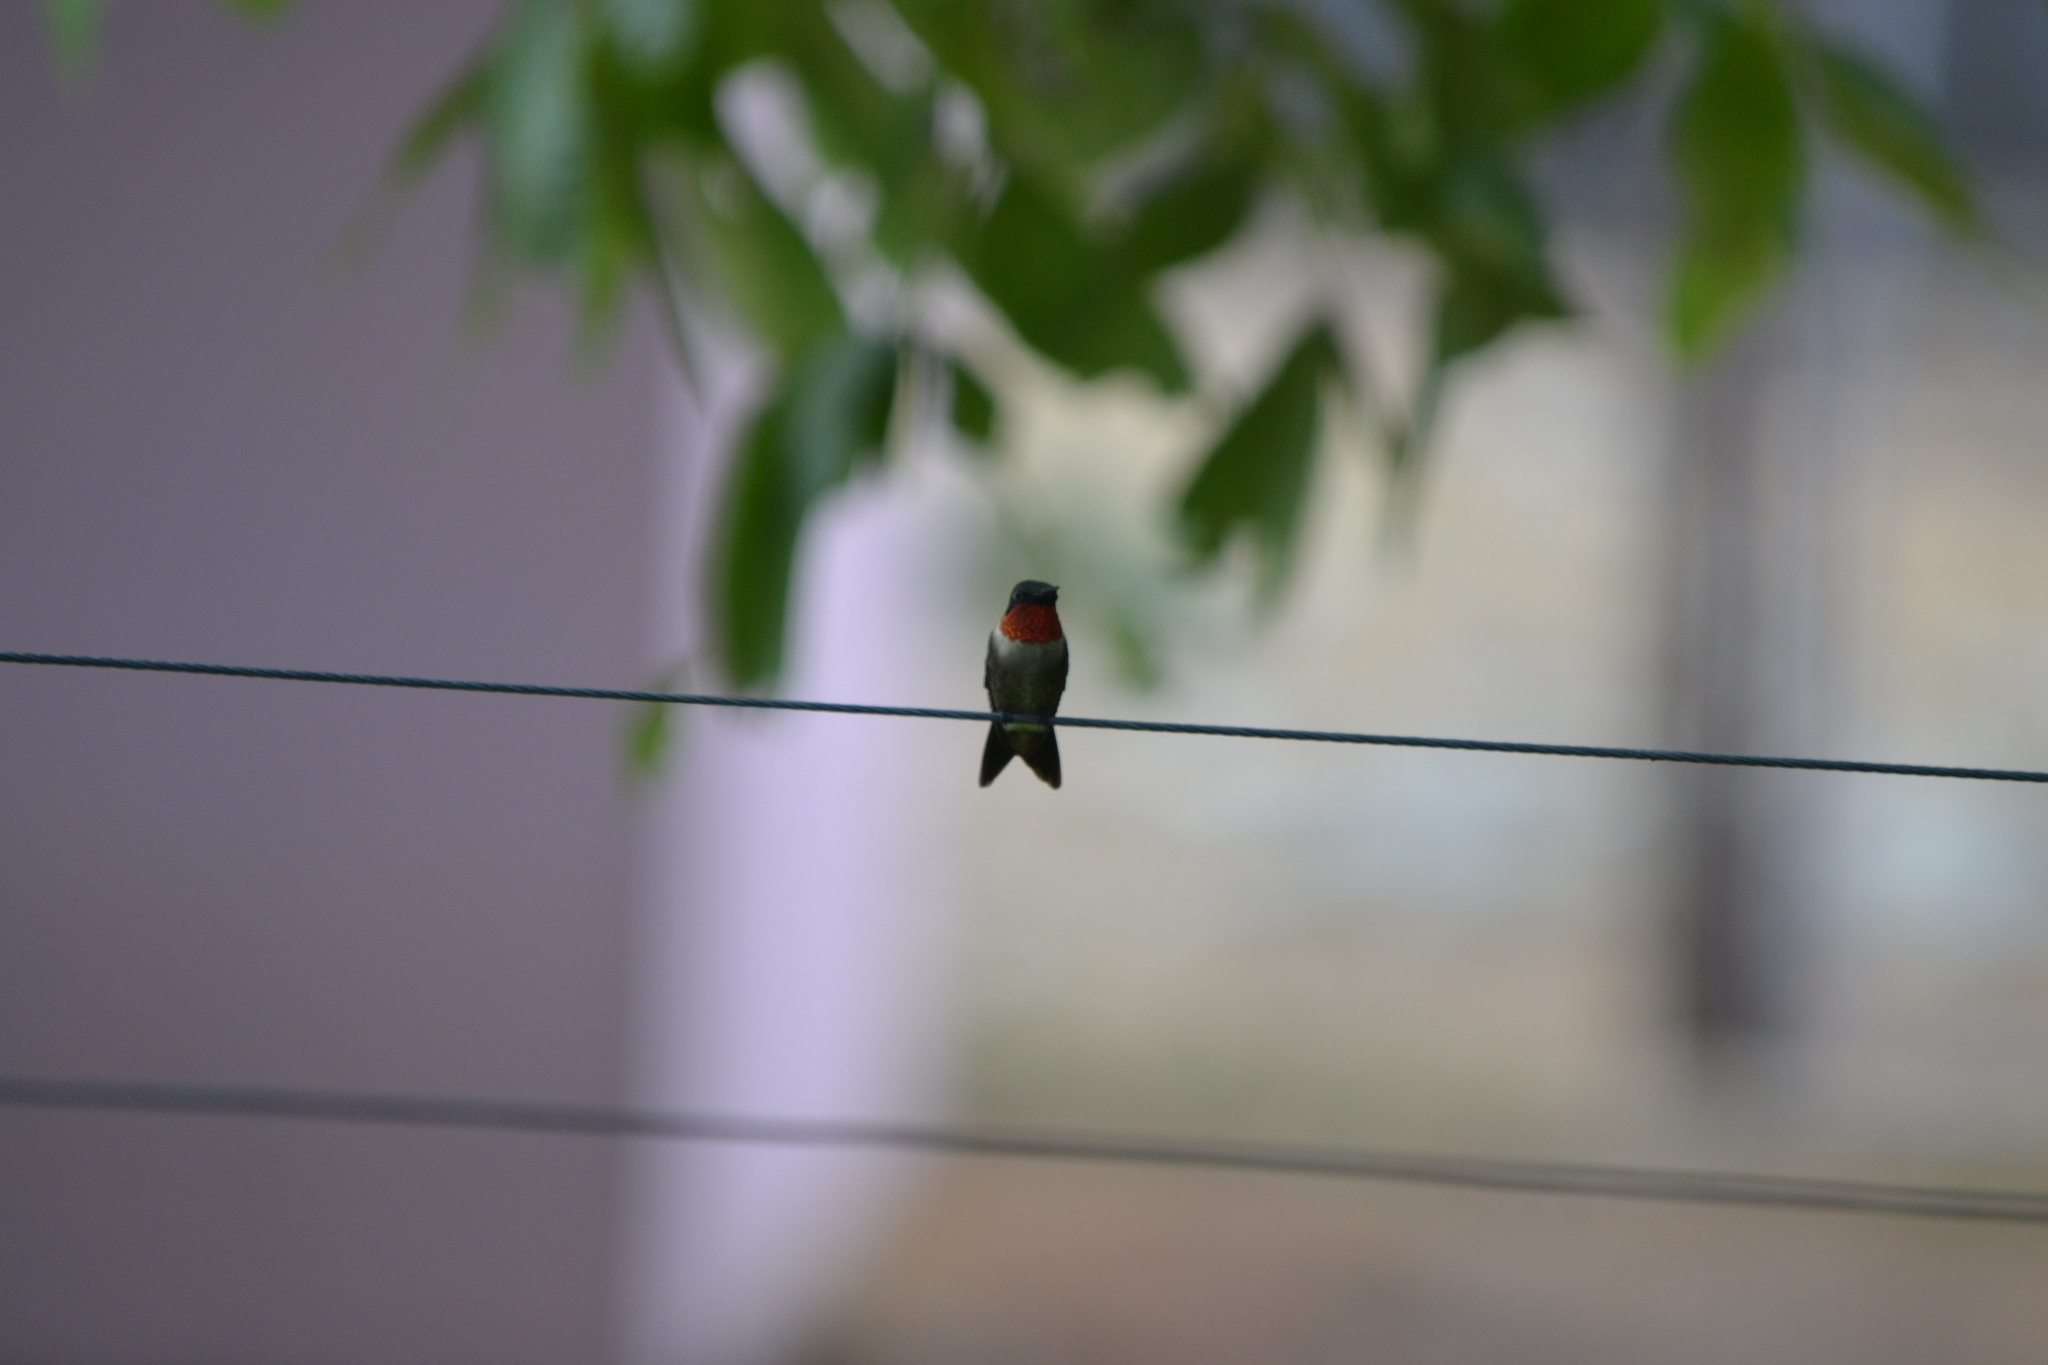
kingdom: Animalia
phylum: Chordata
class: Aves
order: Apodiformes
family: Trochilidae
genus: Archilochus
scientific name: Archilochus colubris
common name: Ruby-throated hummingbird
